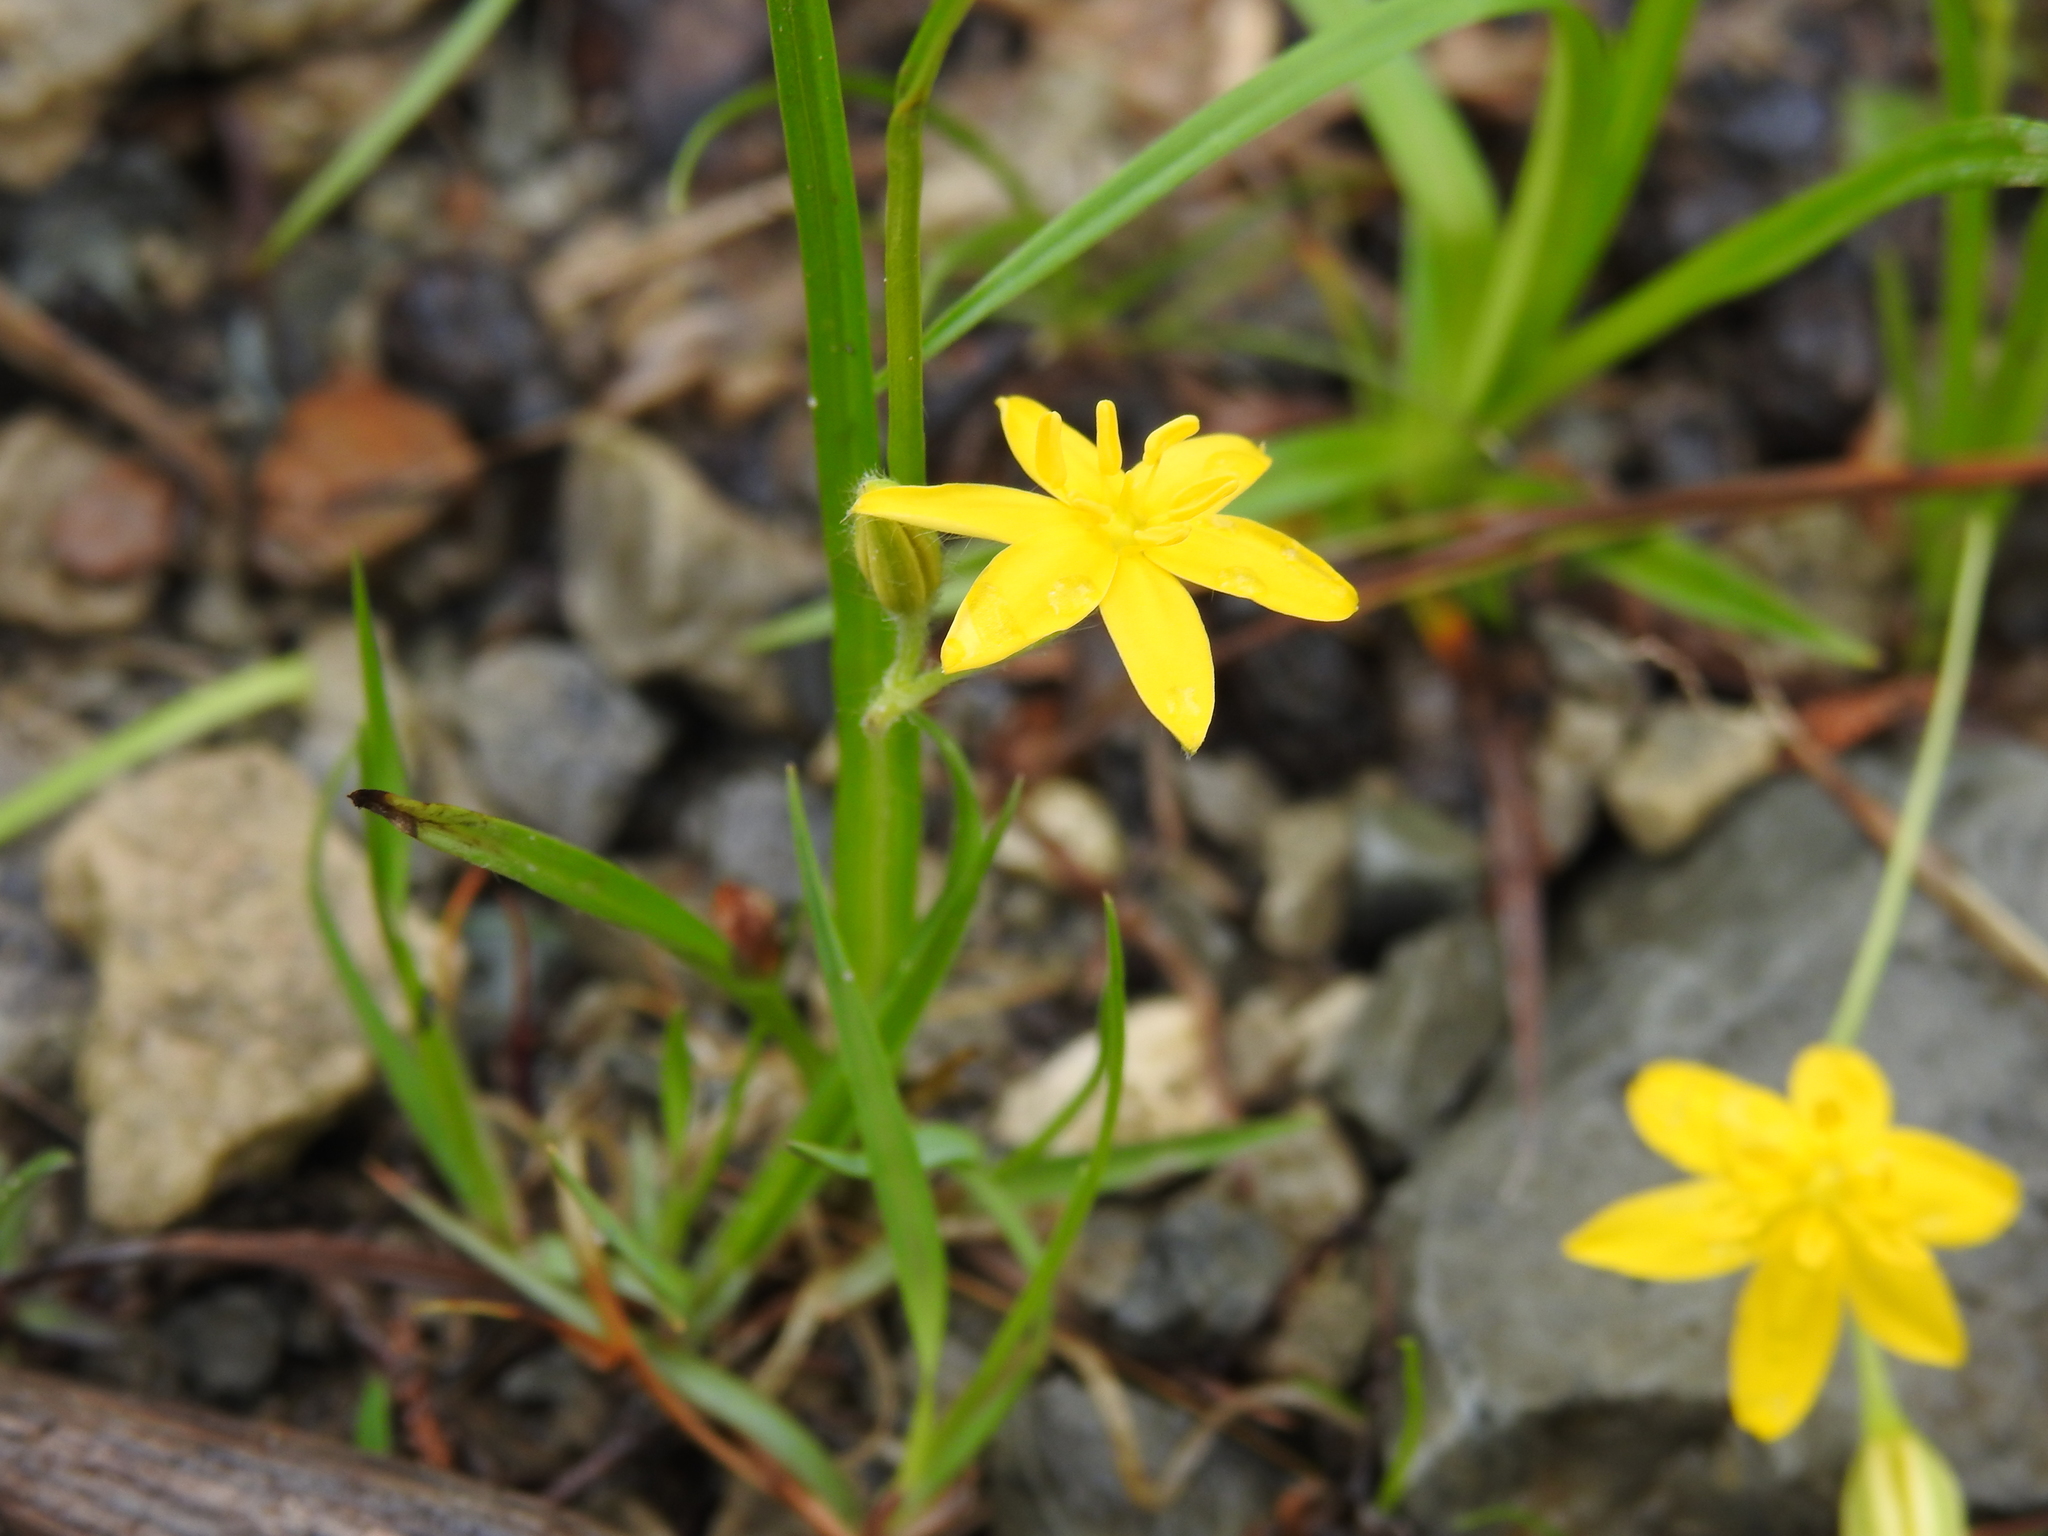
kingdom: Plantae
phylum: Tracheophyta
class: Liliopsida
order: Asparagales
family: Hypoxidaceae
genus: Hypoxis
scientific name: Hypoxis hirsuta
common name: Common goldstar
